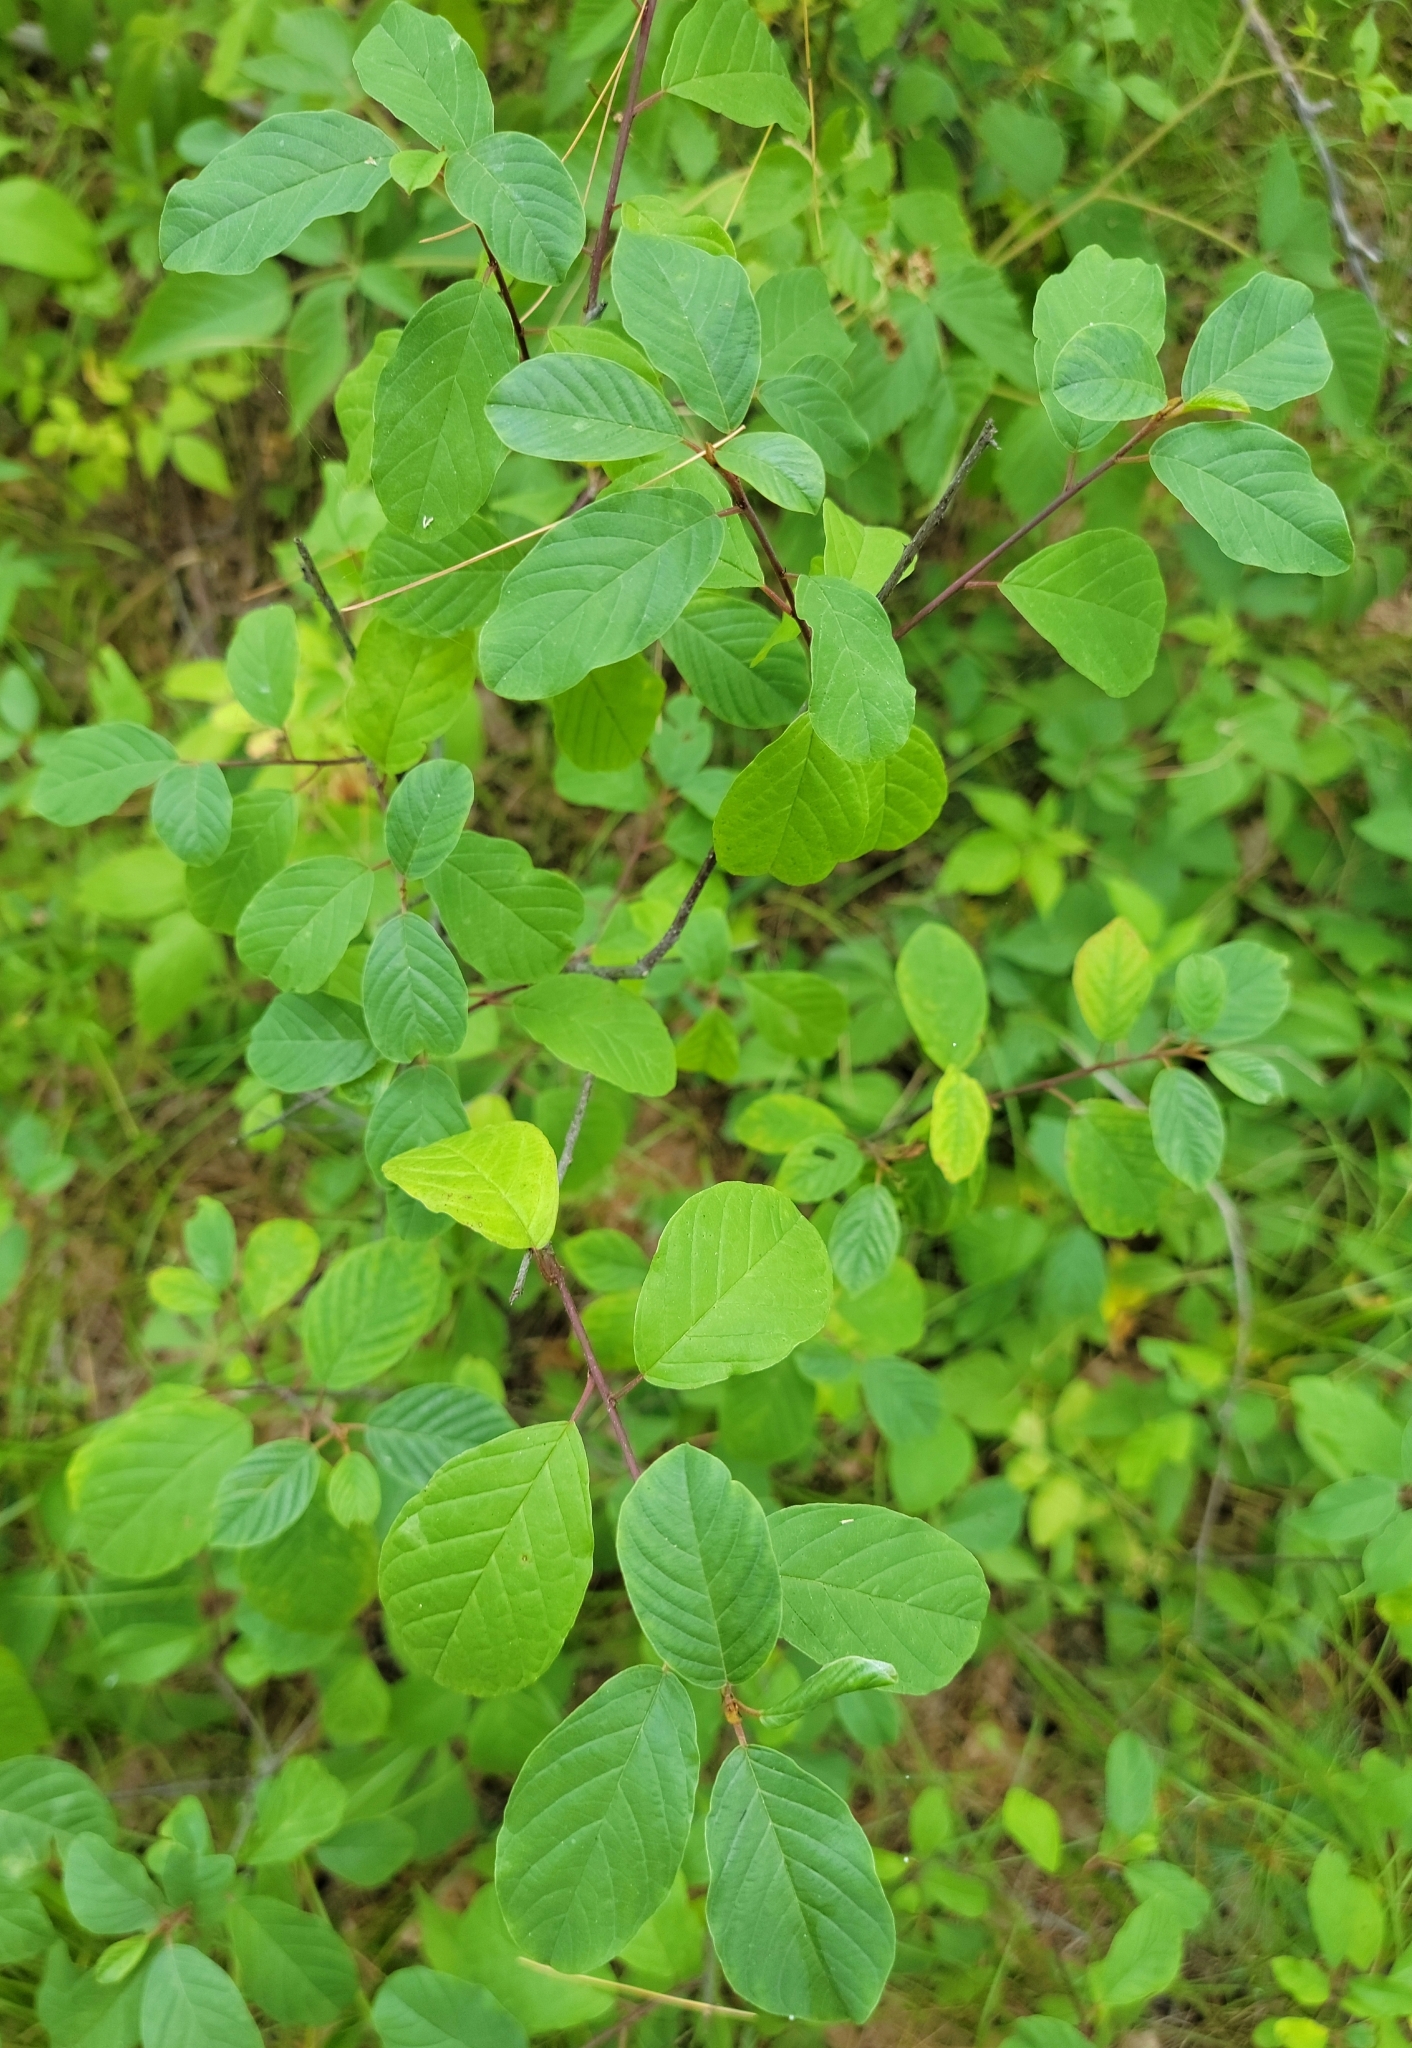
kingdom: Plantae
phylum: Tracheophyta
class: Magnoliopsida
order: Rosales
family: Rhamnaceae
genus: Frangula
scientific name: Frangula alnus
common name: Alder buckthorn
